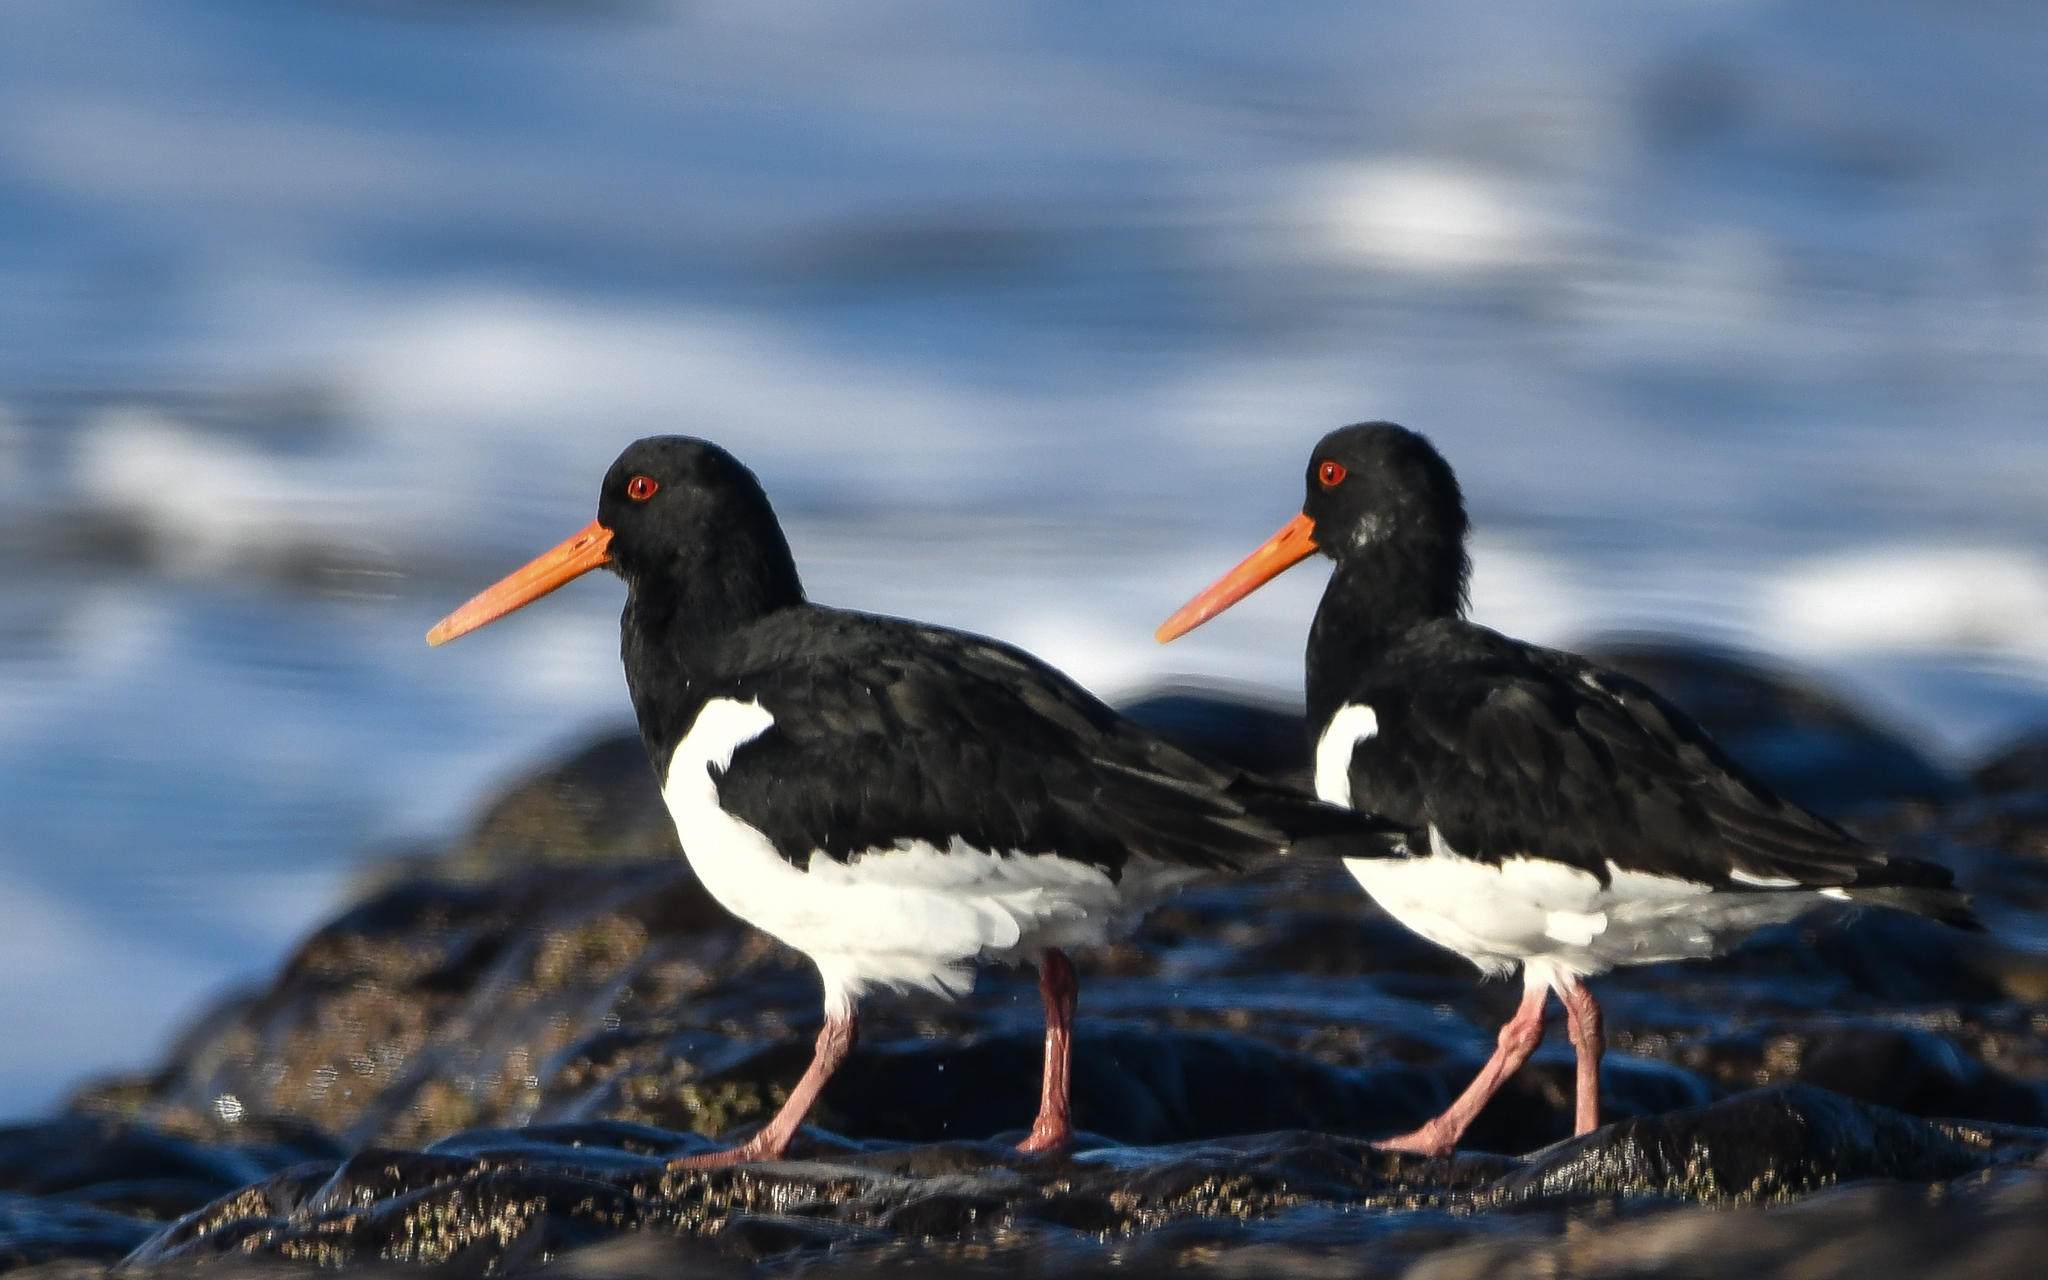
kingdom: Animalia
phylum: Chordata
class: Aves
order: Charadriiformes
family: Haematopodidae
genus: Haematopus
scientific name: Haematopus ostralegus
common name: Eurasian oystercatcher
